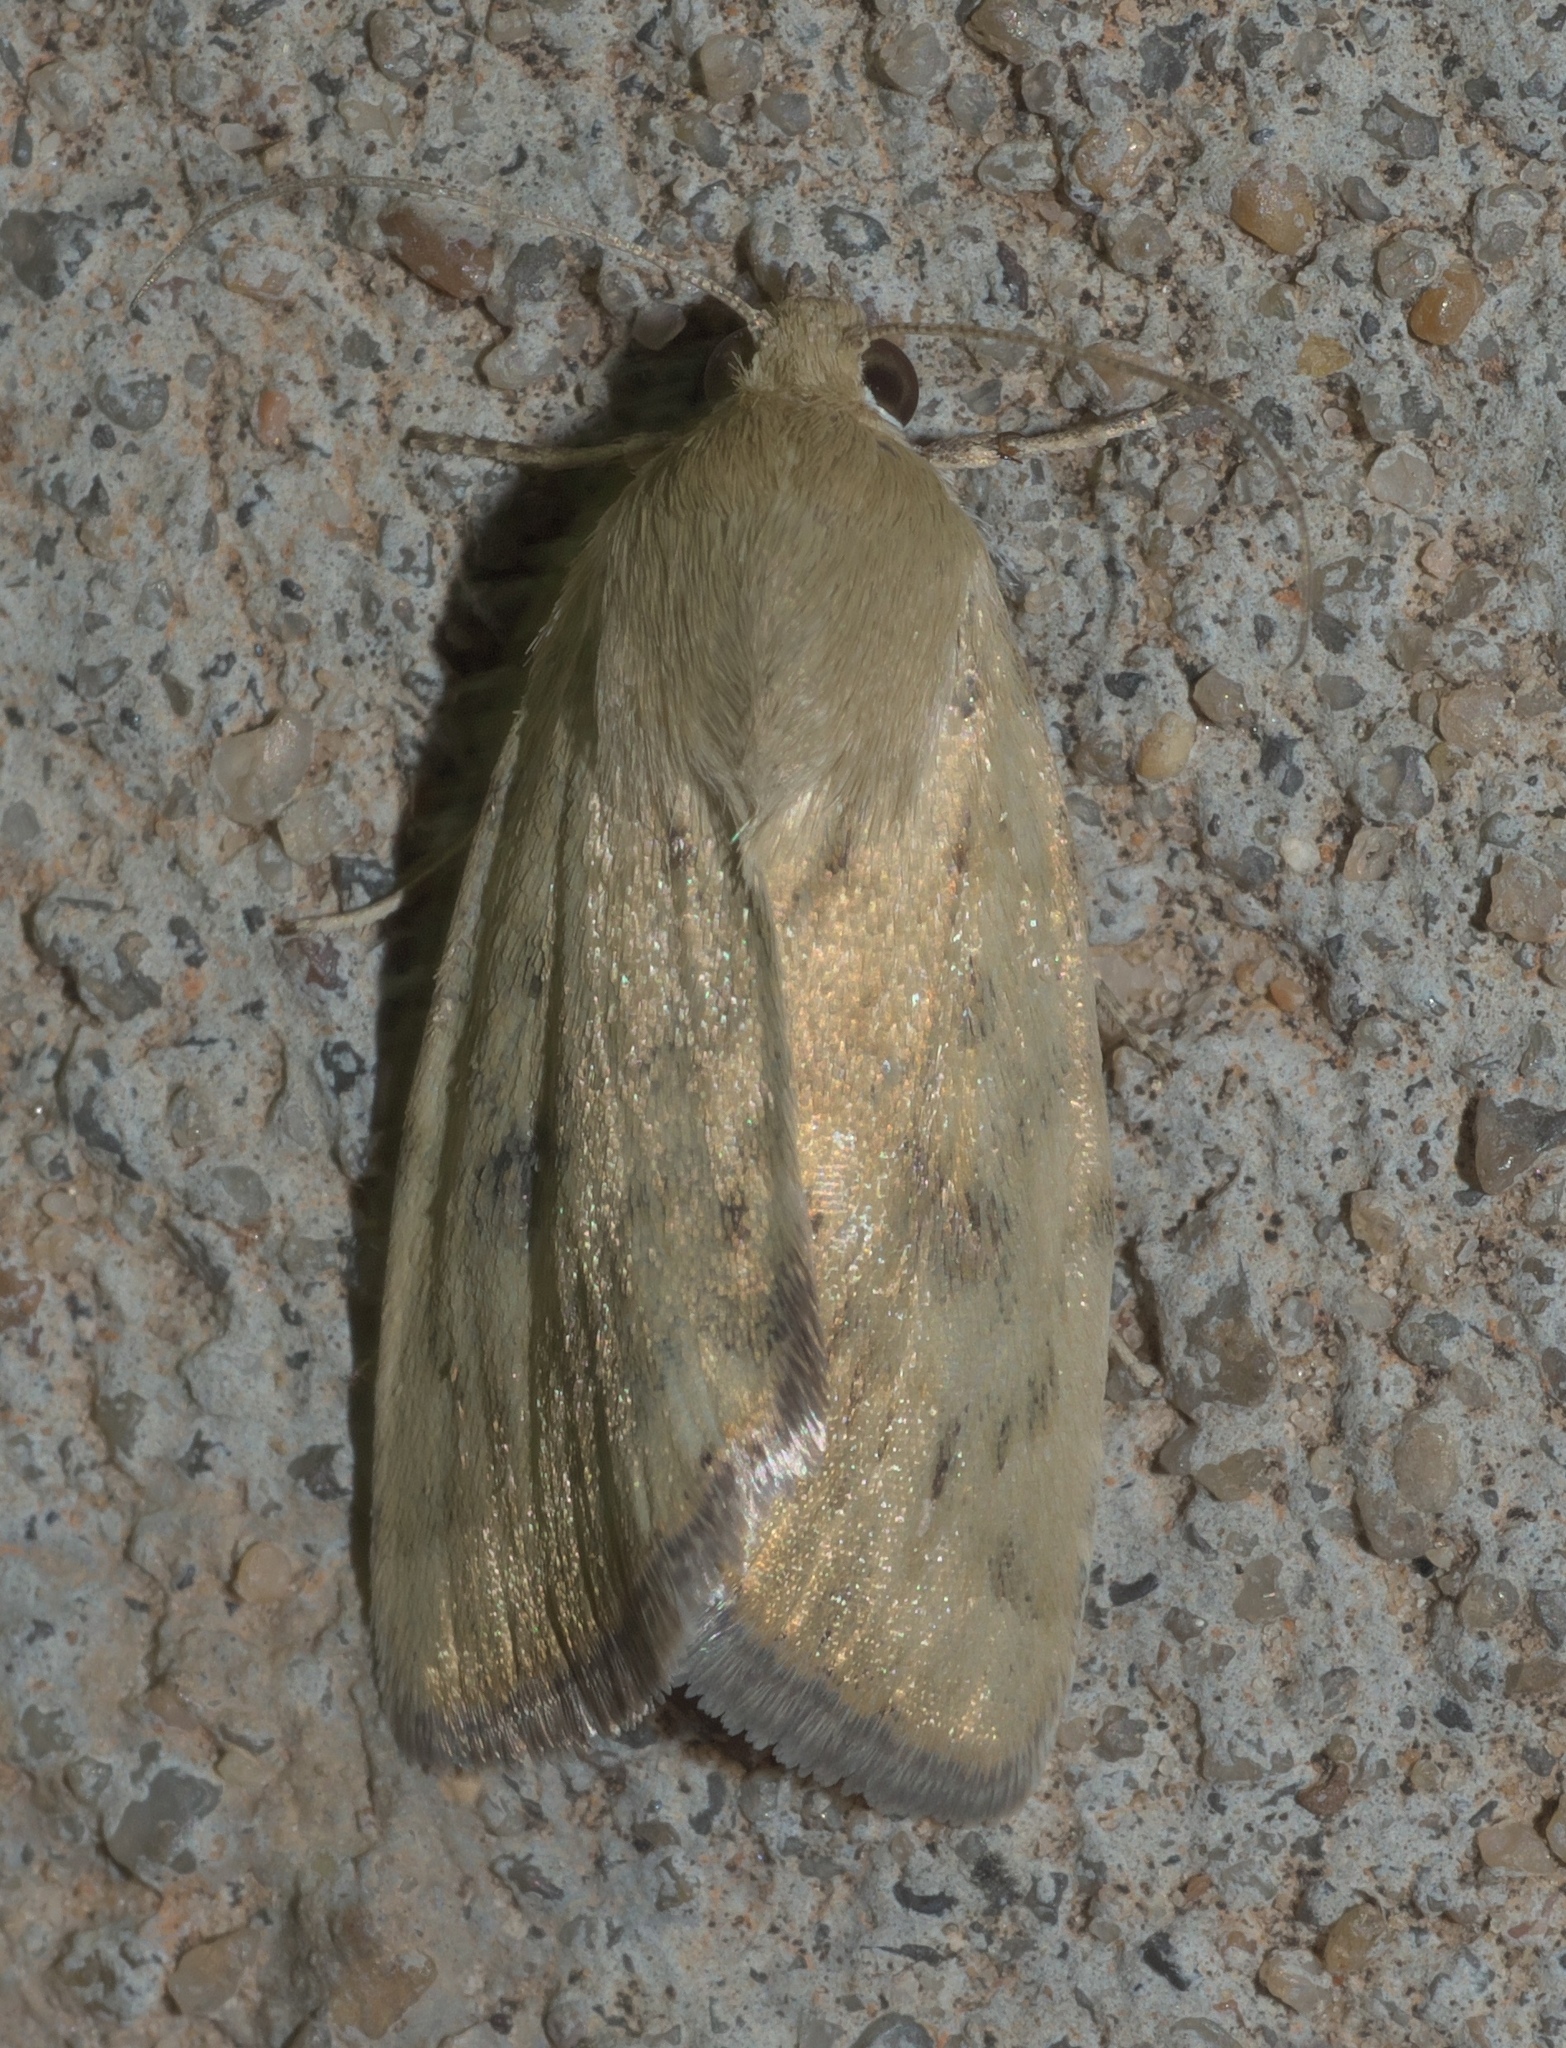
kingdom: Animalia
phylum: Arthropoda
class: Insecta
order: Lepidoptera
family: Noctuidae
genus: Heliocheilus
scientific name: Heliocheilus paradoxus
